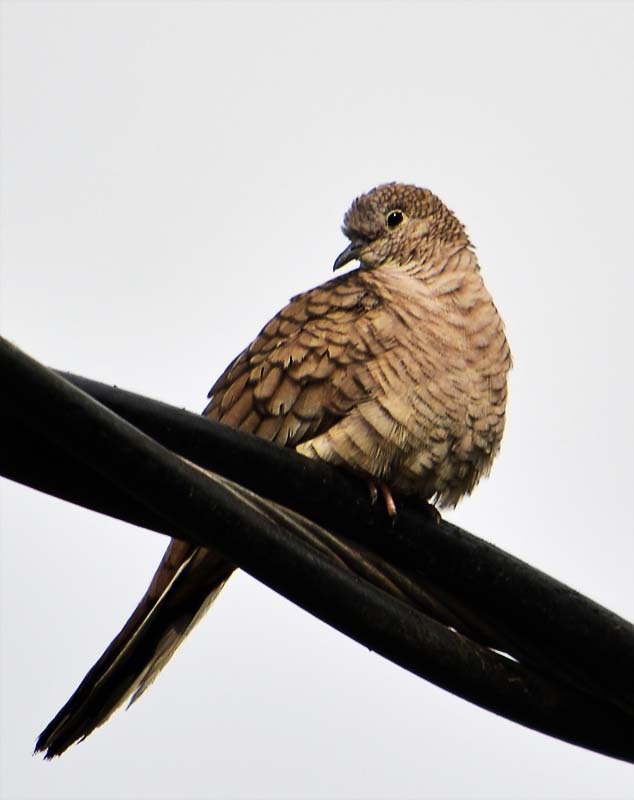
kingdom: Animalia
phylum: Chordata
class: Aves
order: Columbiformes
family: Columbidae
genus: Columbina
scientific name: Columbina inca
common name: Inca dove
